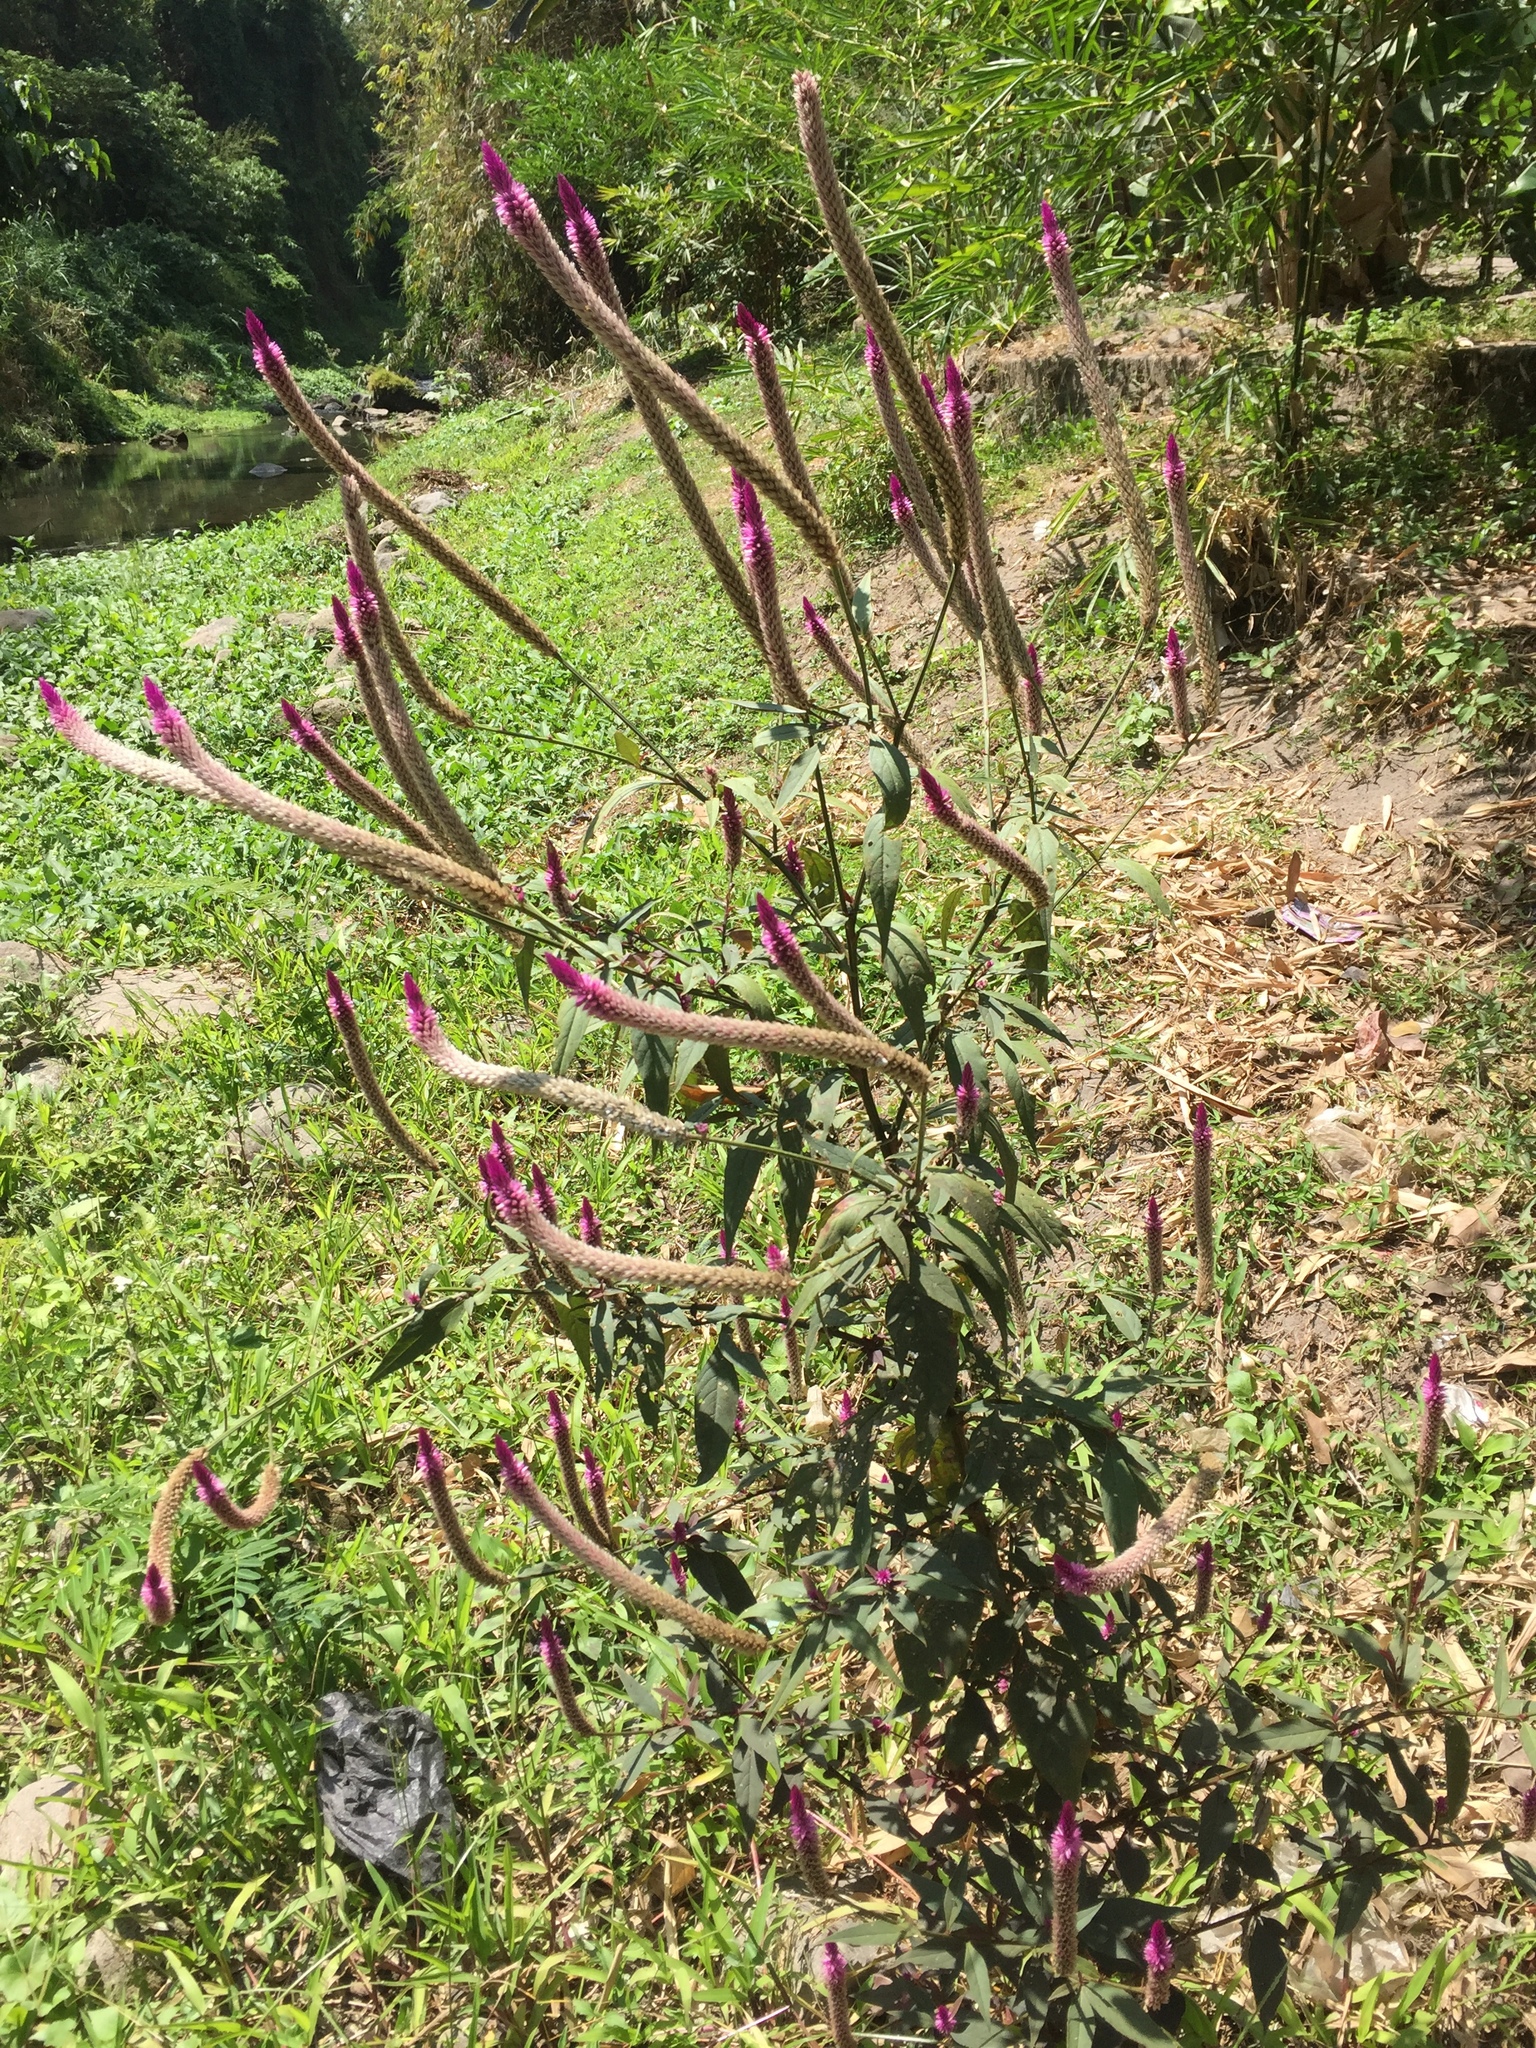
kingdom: Plantae
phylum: Tracheophyta
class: Magnoliopsida
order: Caryophyllales
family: Amaranthaceae
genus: Celosia
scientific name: Celosia argentea
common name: Feather cockscomb
